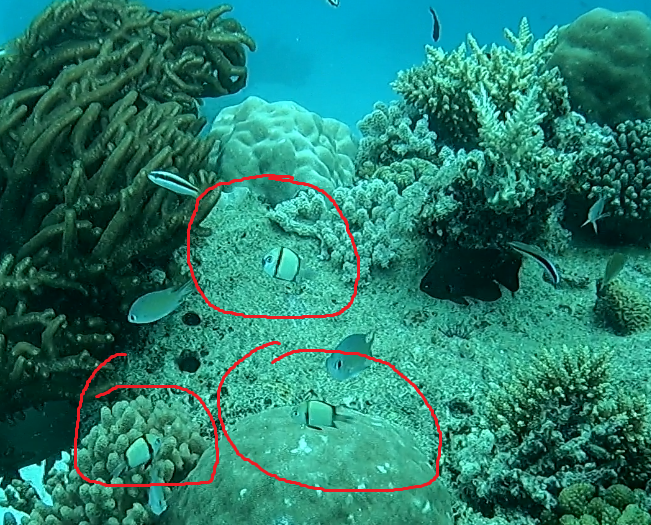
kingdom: Animalia
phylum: Chordata
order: Perciformes
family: Pomacentridae
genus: Dascyllus
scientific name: Dascyllus reticulatus
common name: Reticulated dascyllus
